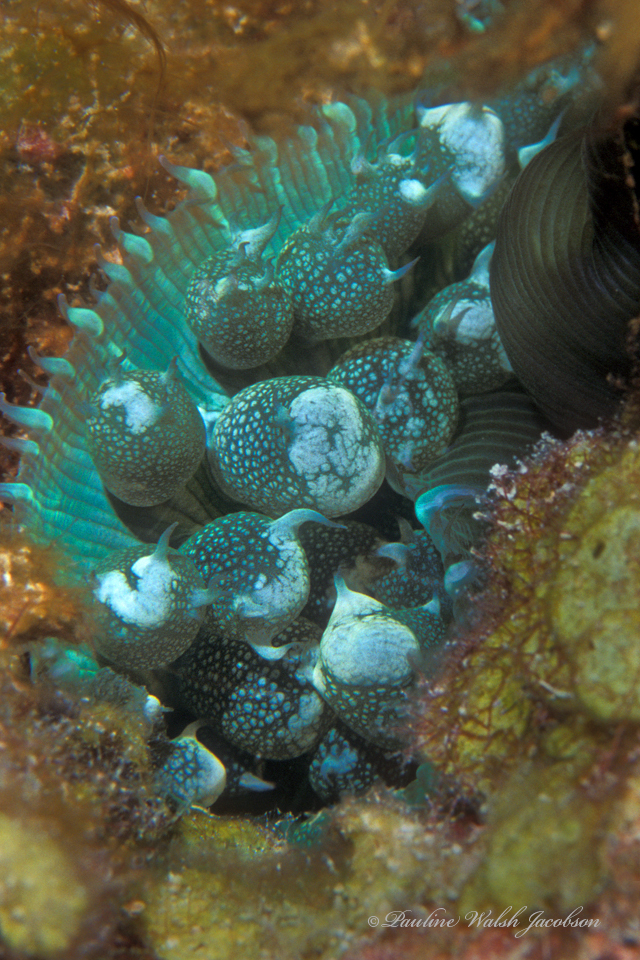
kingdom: Animalia
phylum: Cnidaria
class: Anthozoa
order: Corallimorpharia
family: Discosomidae
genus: Rhodactis
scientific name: Rhodactis osculifera
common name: Warty corallimorph
